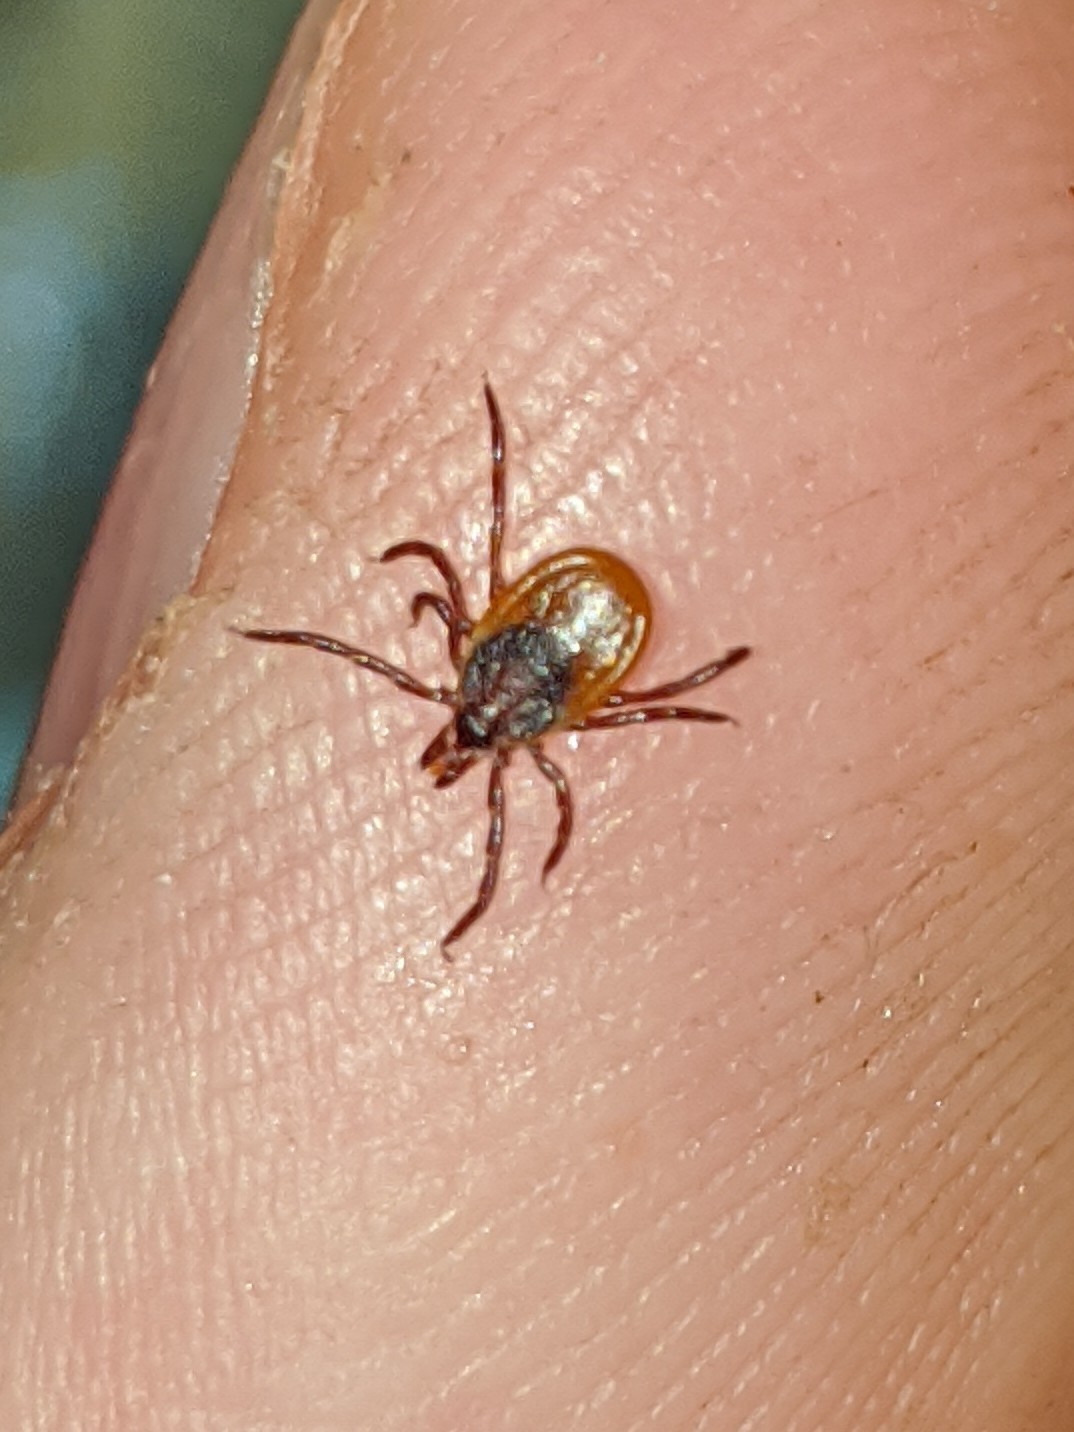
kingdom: Animalia
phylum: Arthropoda
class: Arachnida
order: Ixodida
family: Ixodidae
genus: Ixodes
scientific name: Ixodes scapularis
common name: Black legged tick
